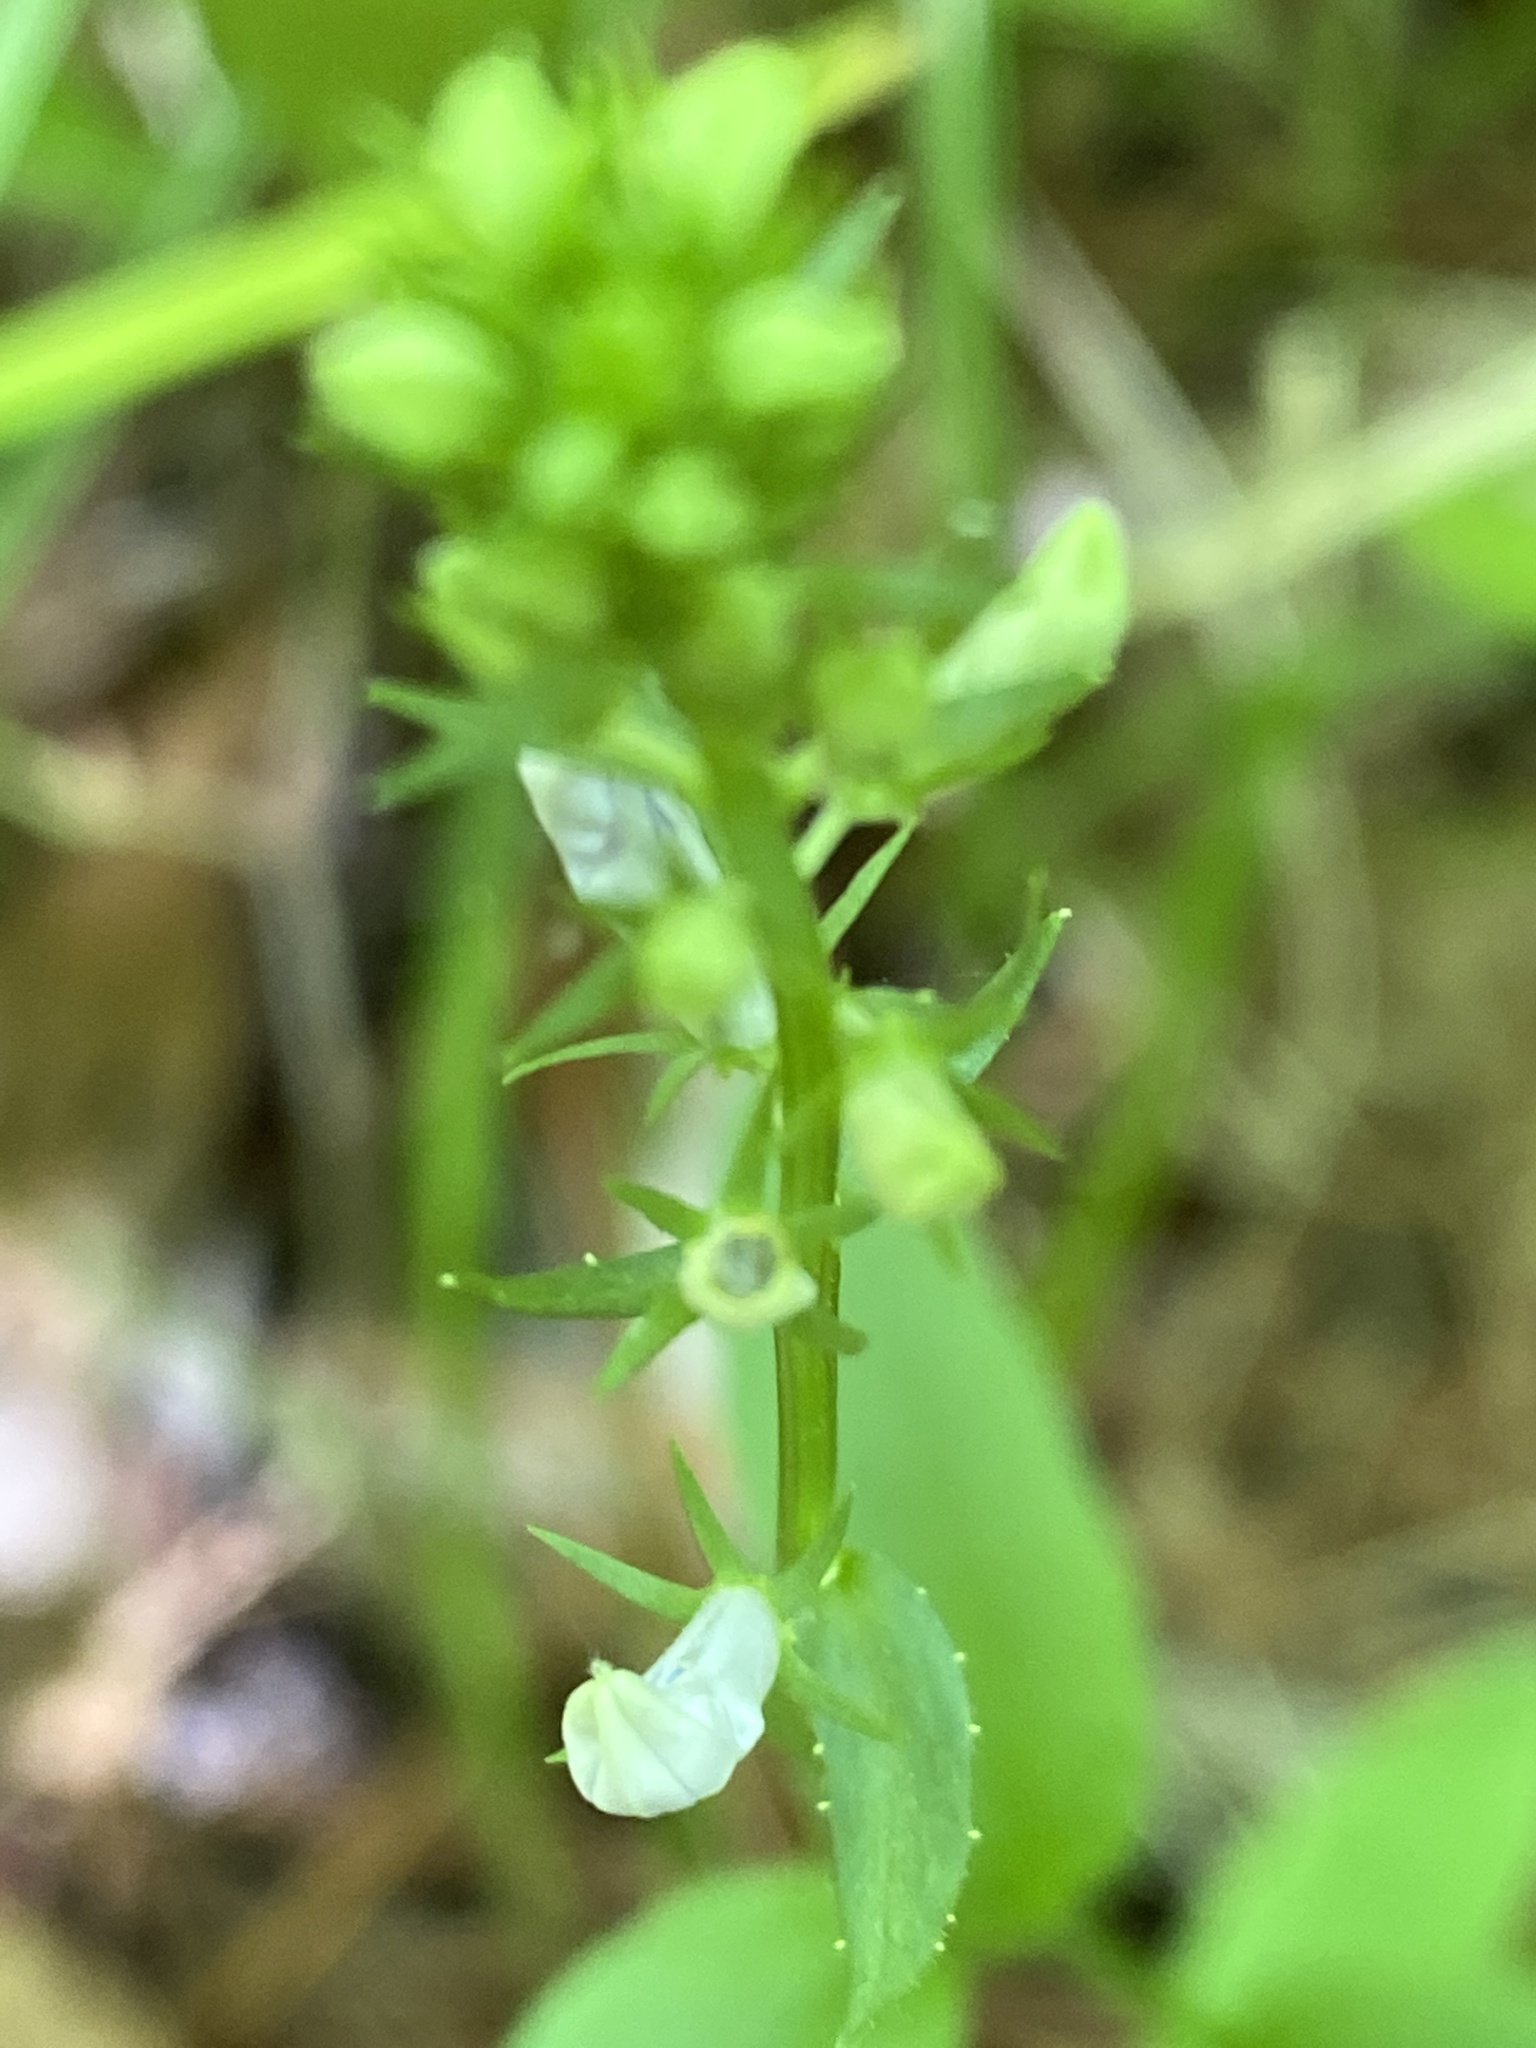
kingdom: Plantae
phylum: Tracheophyta
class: Magnoliopsida
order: Asterales
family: Campanulaceae
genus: Lobelia
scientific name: Lobelia spicata
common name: Pale-spike lobelia
